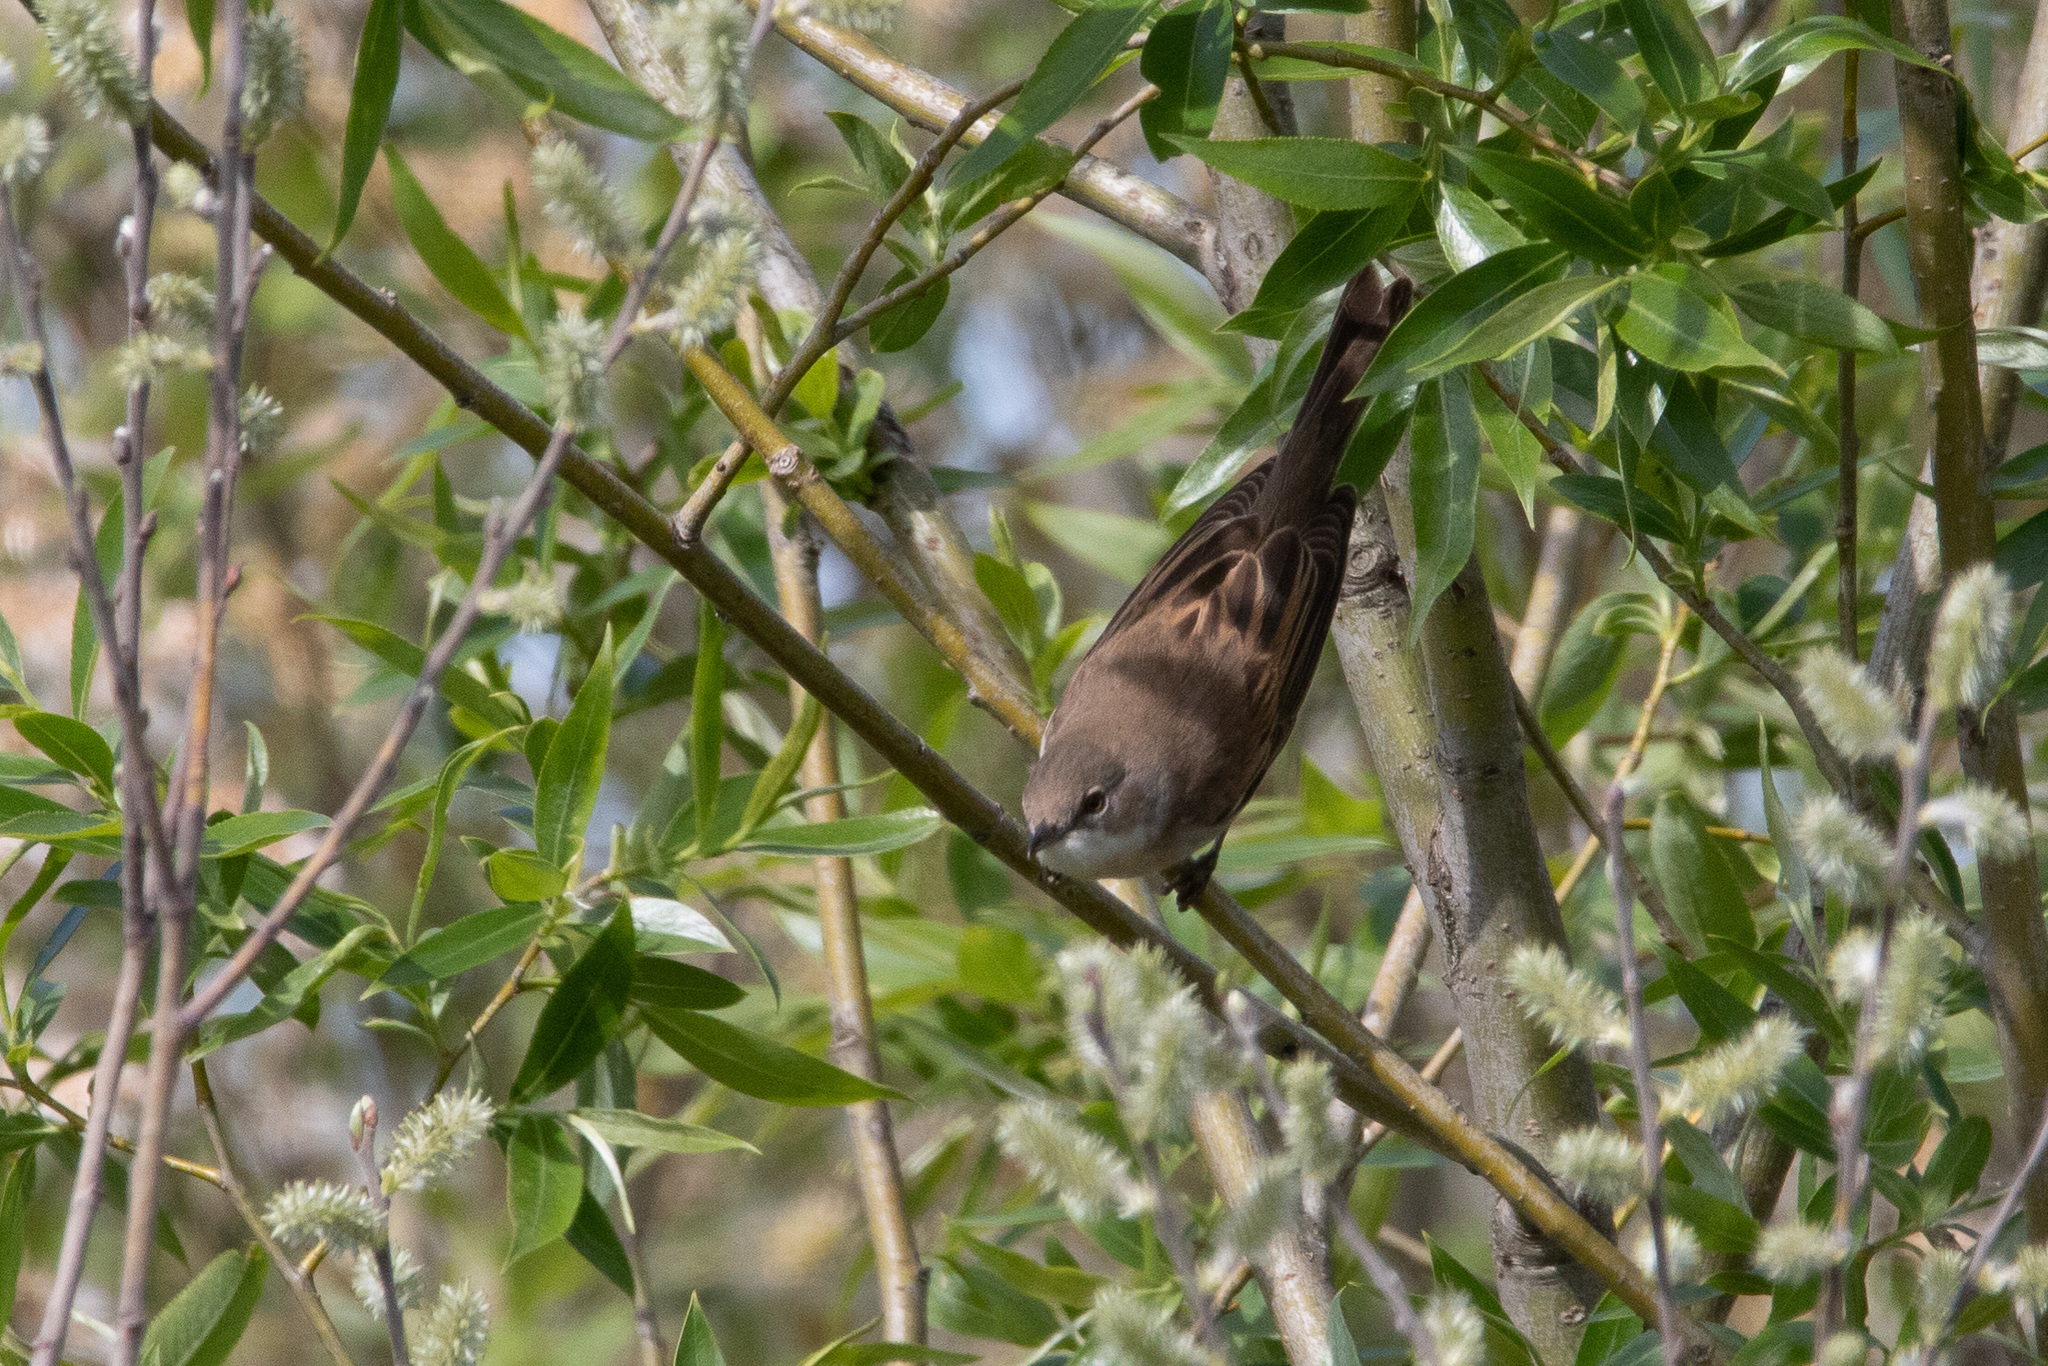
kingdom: Animalia
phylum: Chordata
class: Aves
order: Passeriformes
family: Sylviidae
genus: Sylvia
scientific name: Sylvia communis
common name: Common whitethroat
